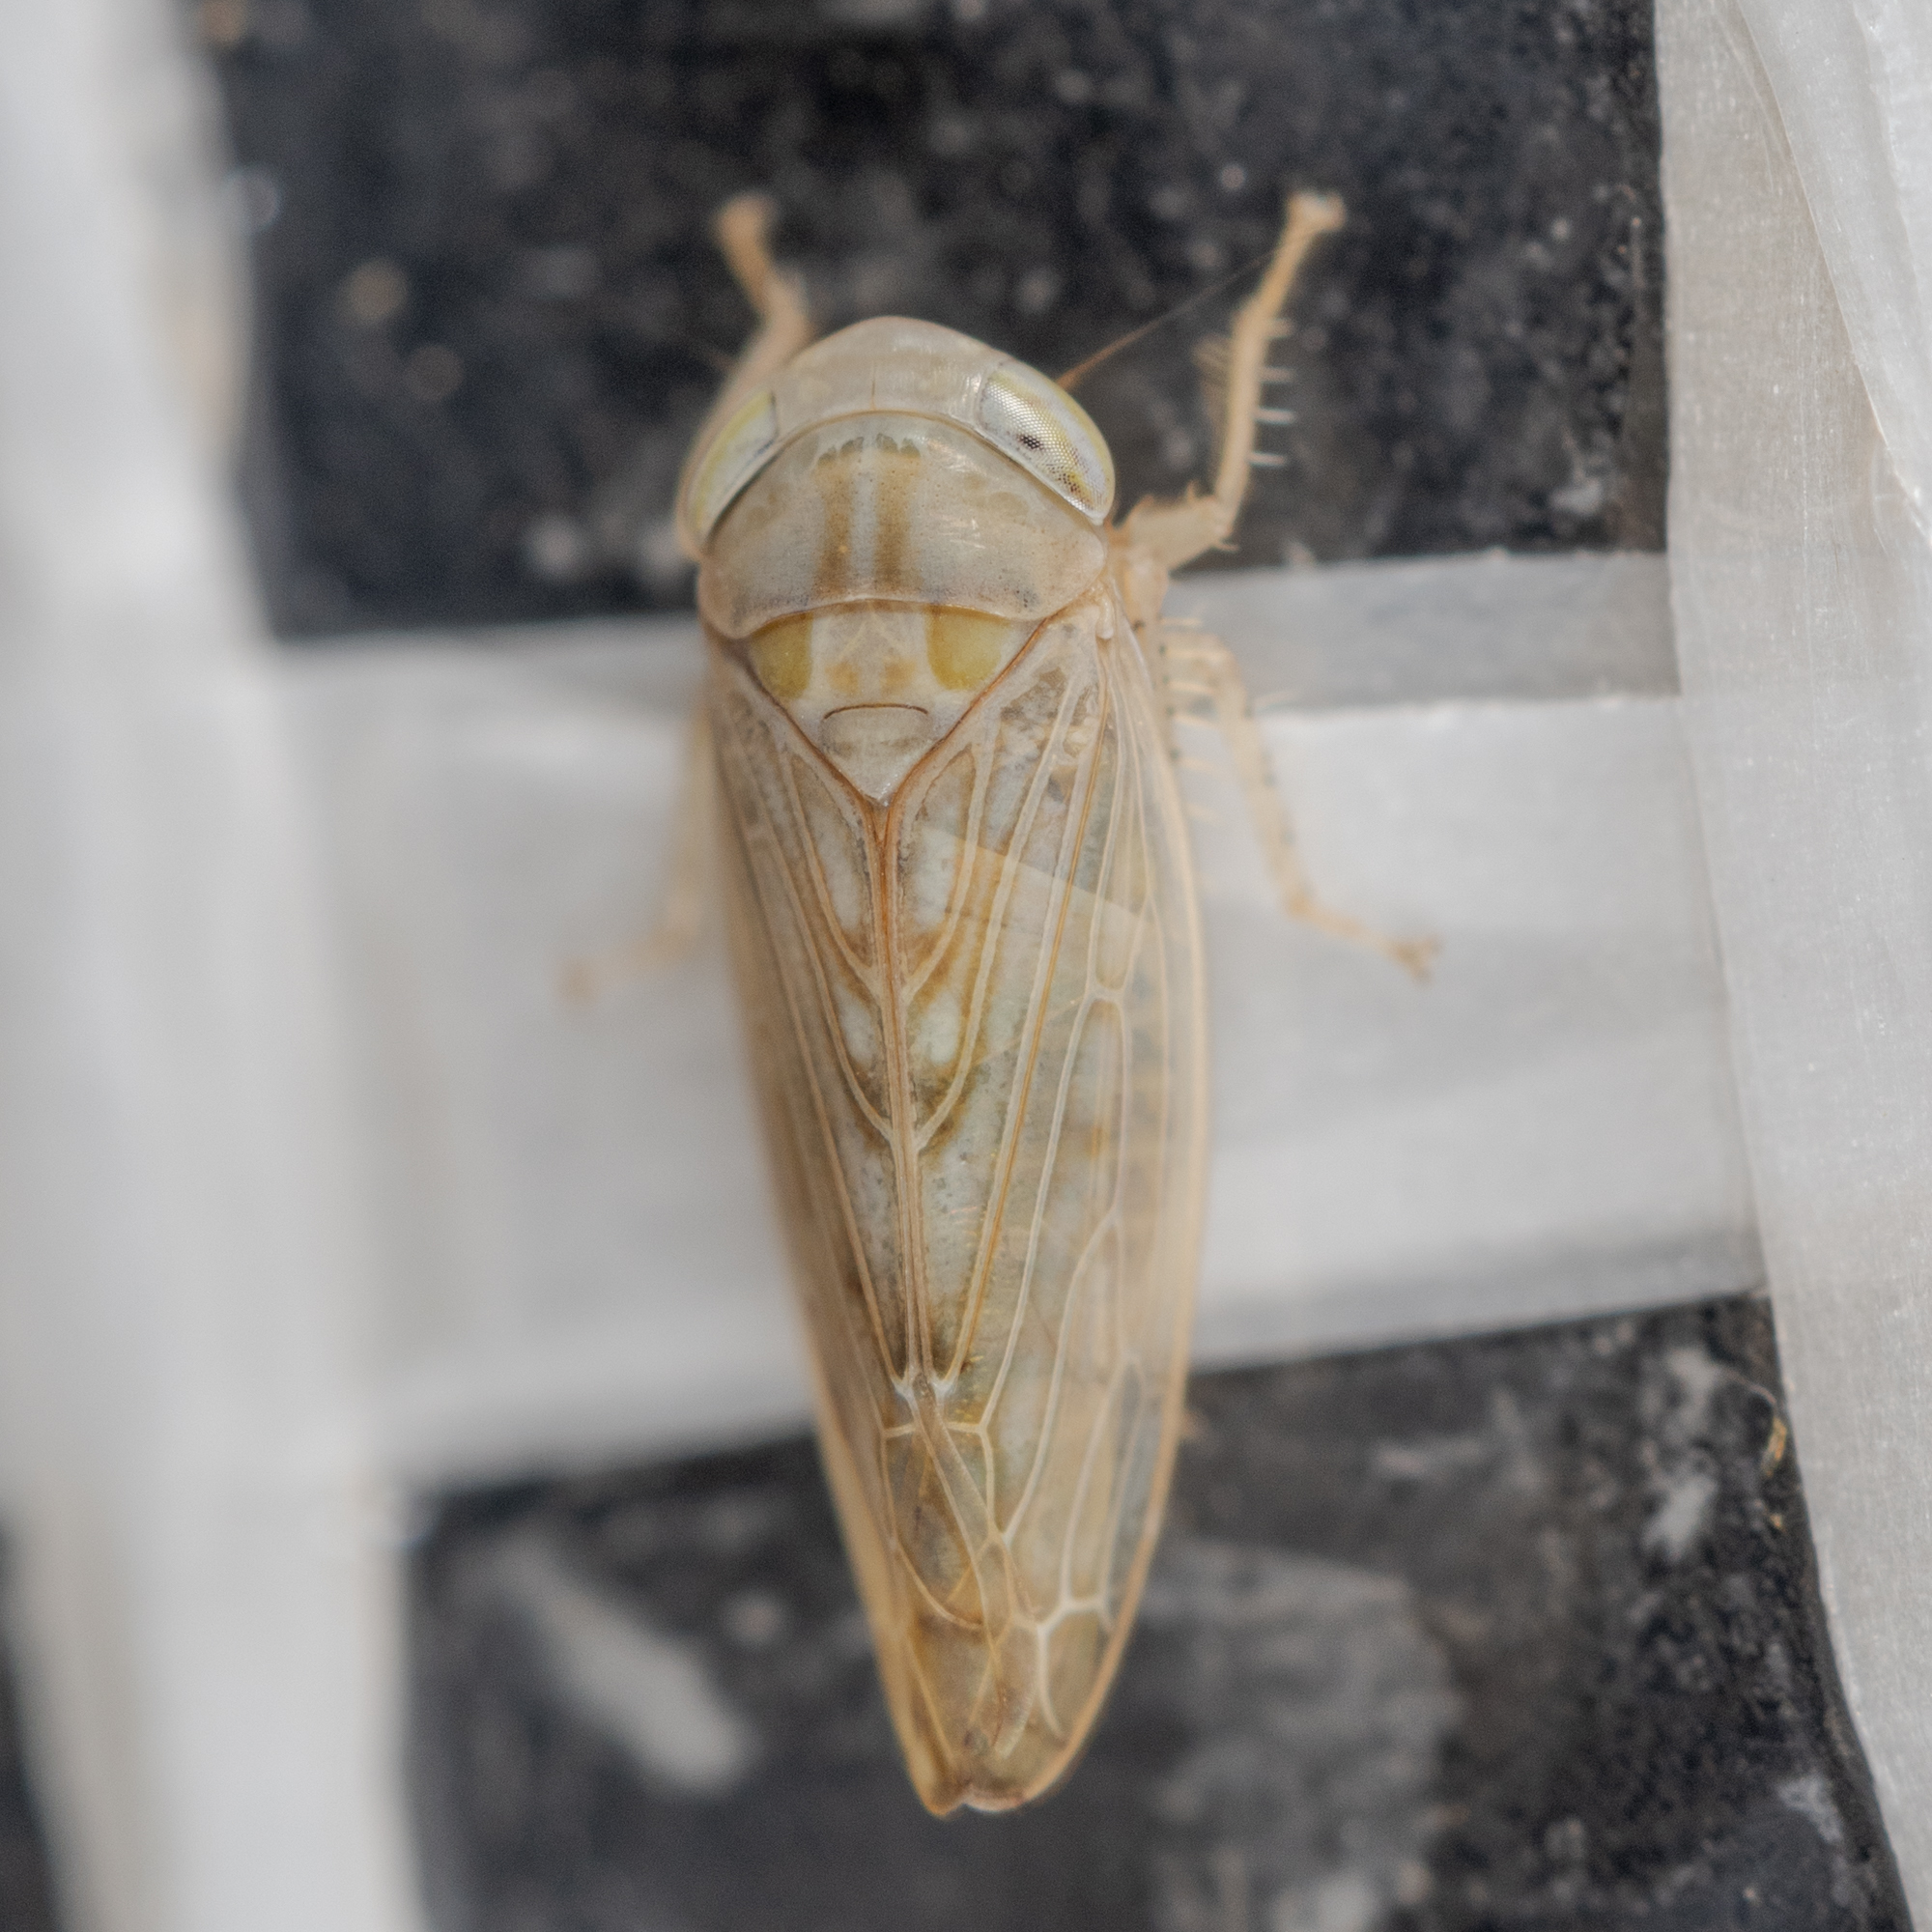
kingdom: Animalia
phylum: Arthropoda
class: Insecta
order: Hemiptera
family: Cicadellidae
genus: Eutettix
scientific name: Eutettix variabilis
